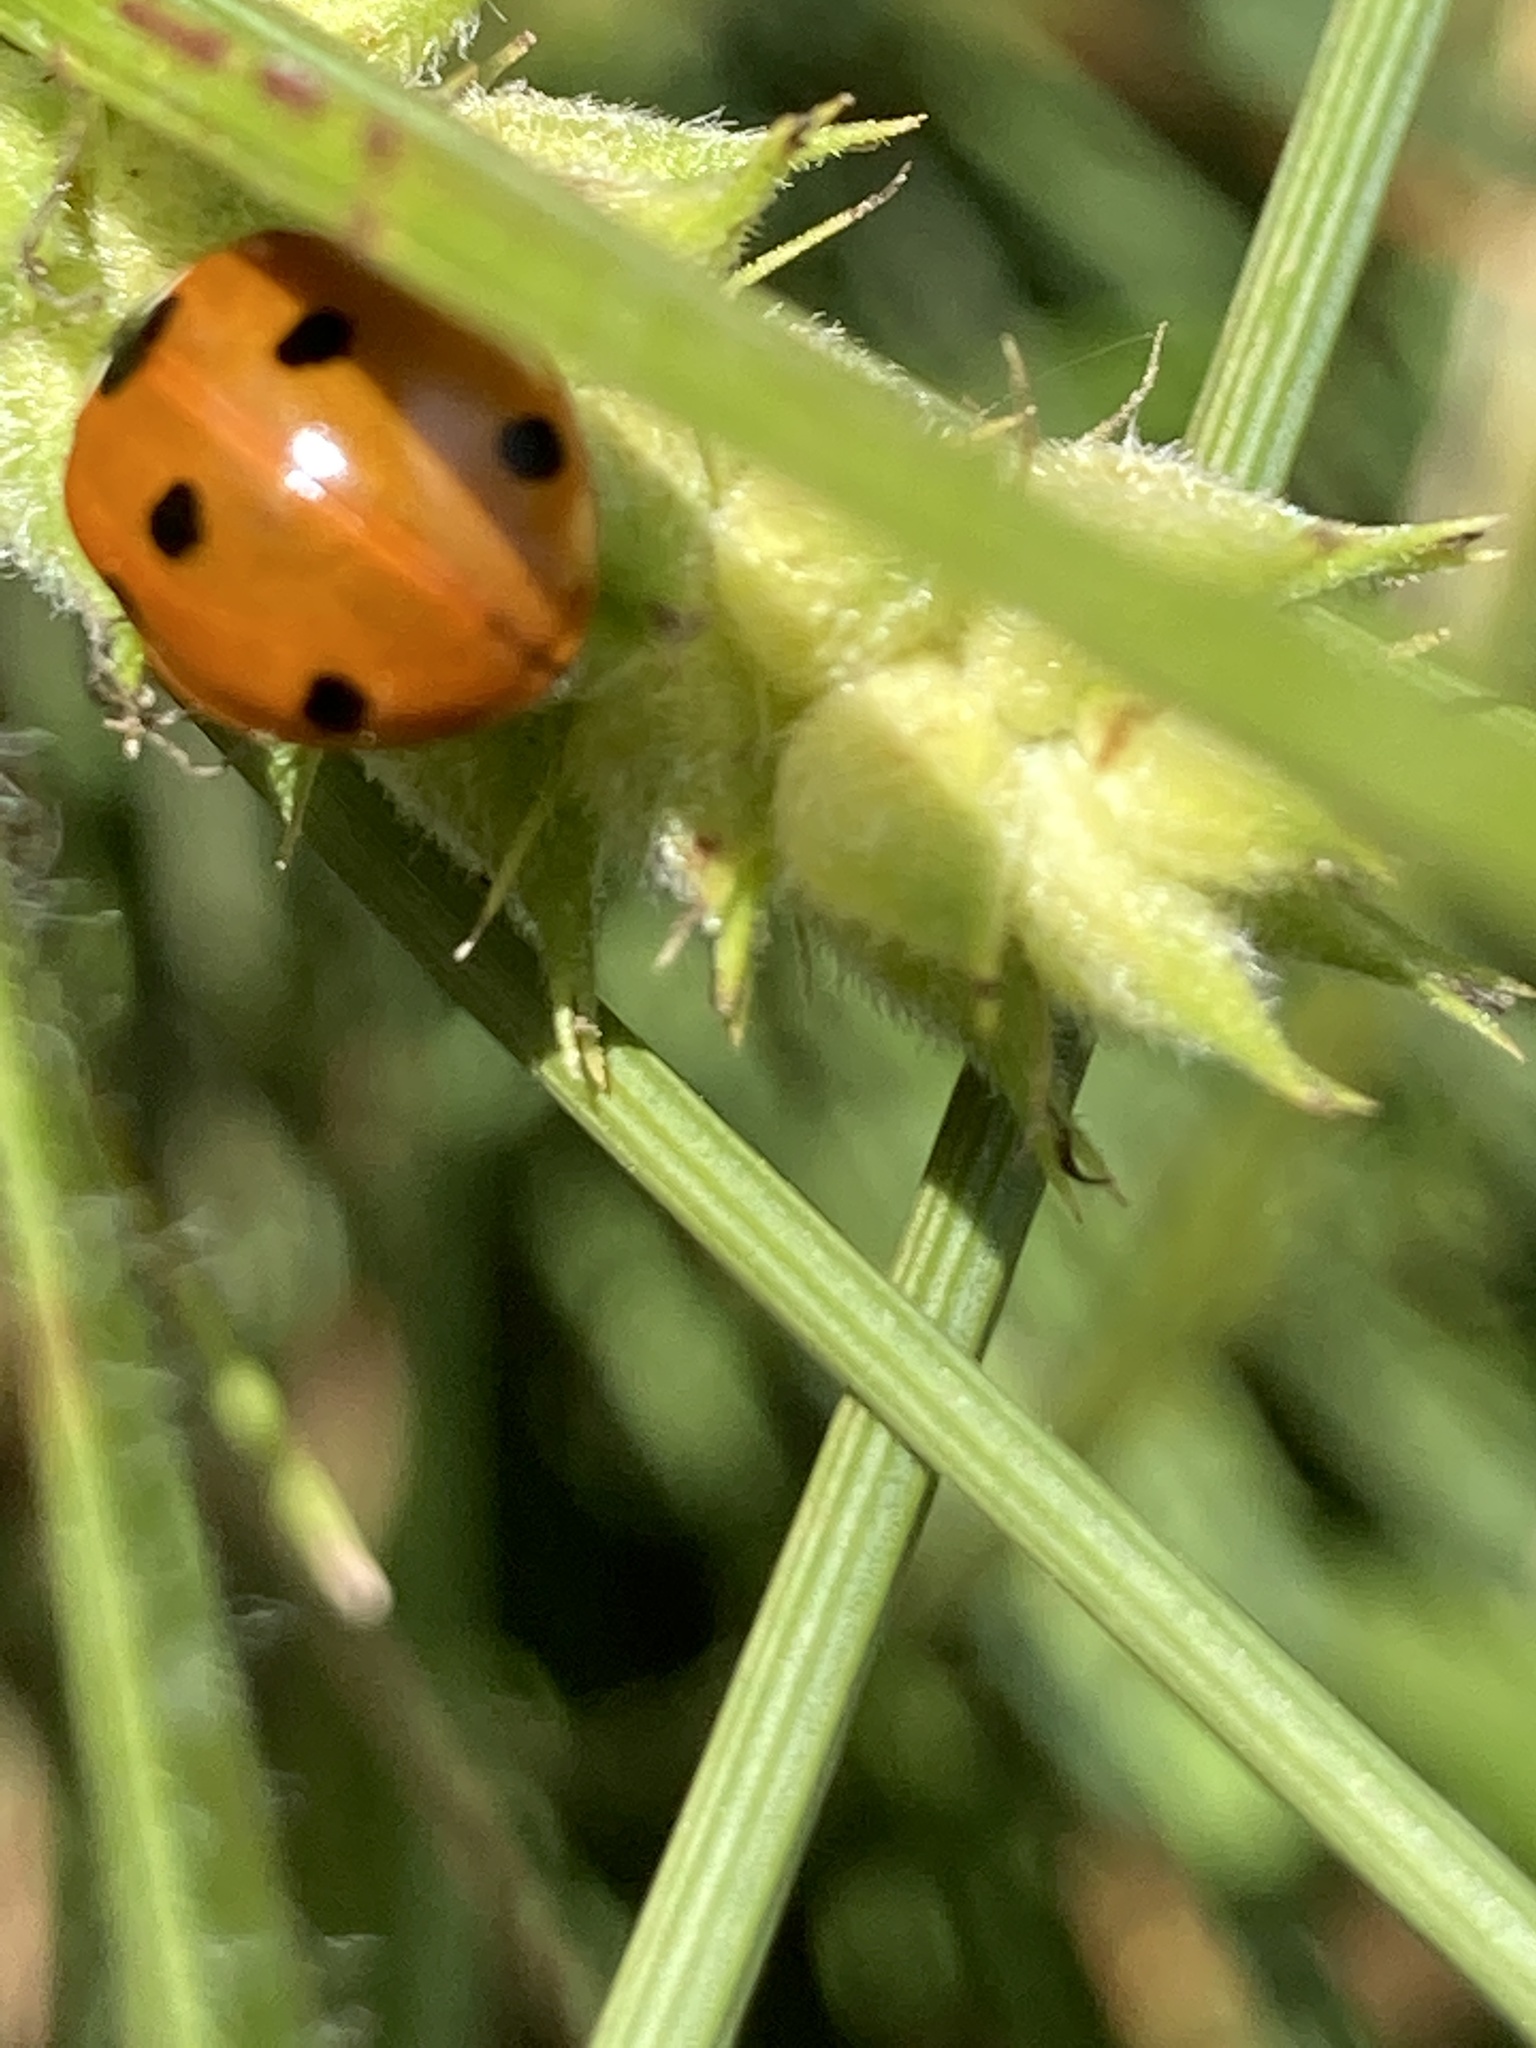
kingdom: Animalia
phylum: Arthropoda
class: Insecta
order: Coleoptera
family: Coccinellidae
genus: Coccinella
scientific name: Coccinella septempunctata
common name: Sevenspotted lady beetle
